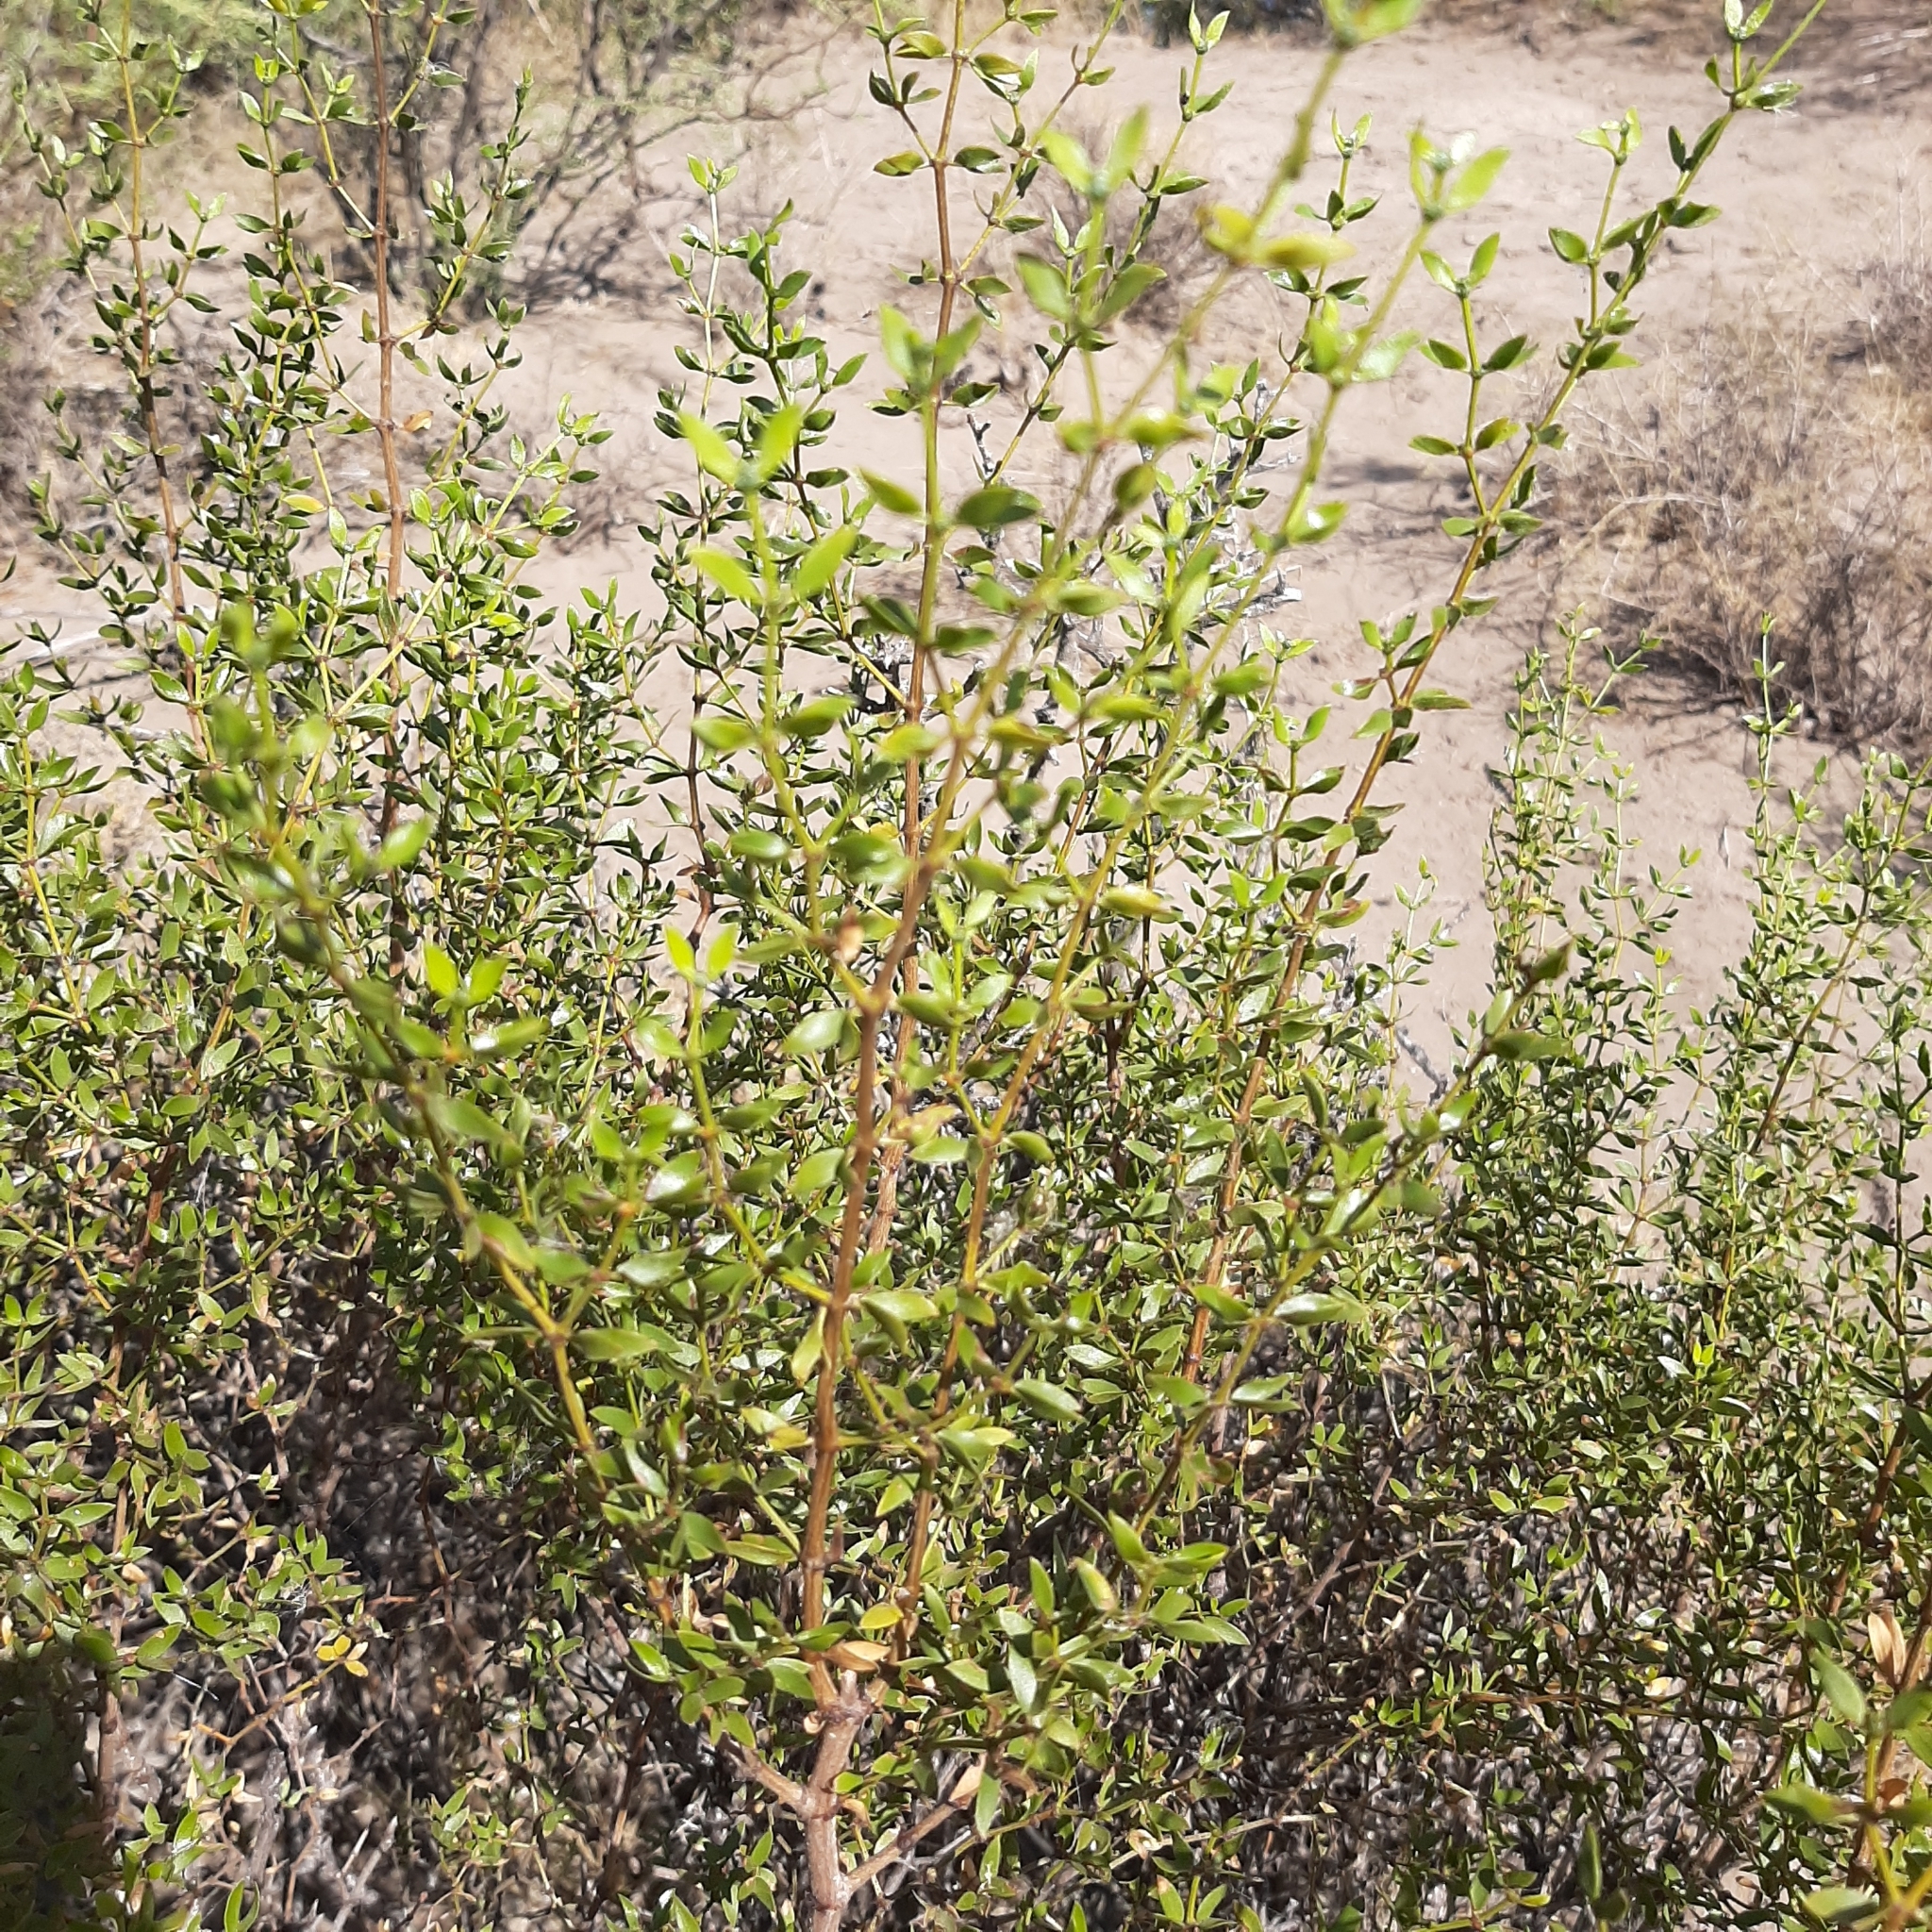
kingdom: Plantae
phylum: Tracheophyta
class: Magnoliopsida
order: Zygophyllales
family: Zygophyllaceae
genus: Larrea
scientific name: Larrea divaricata
